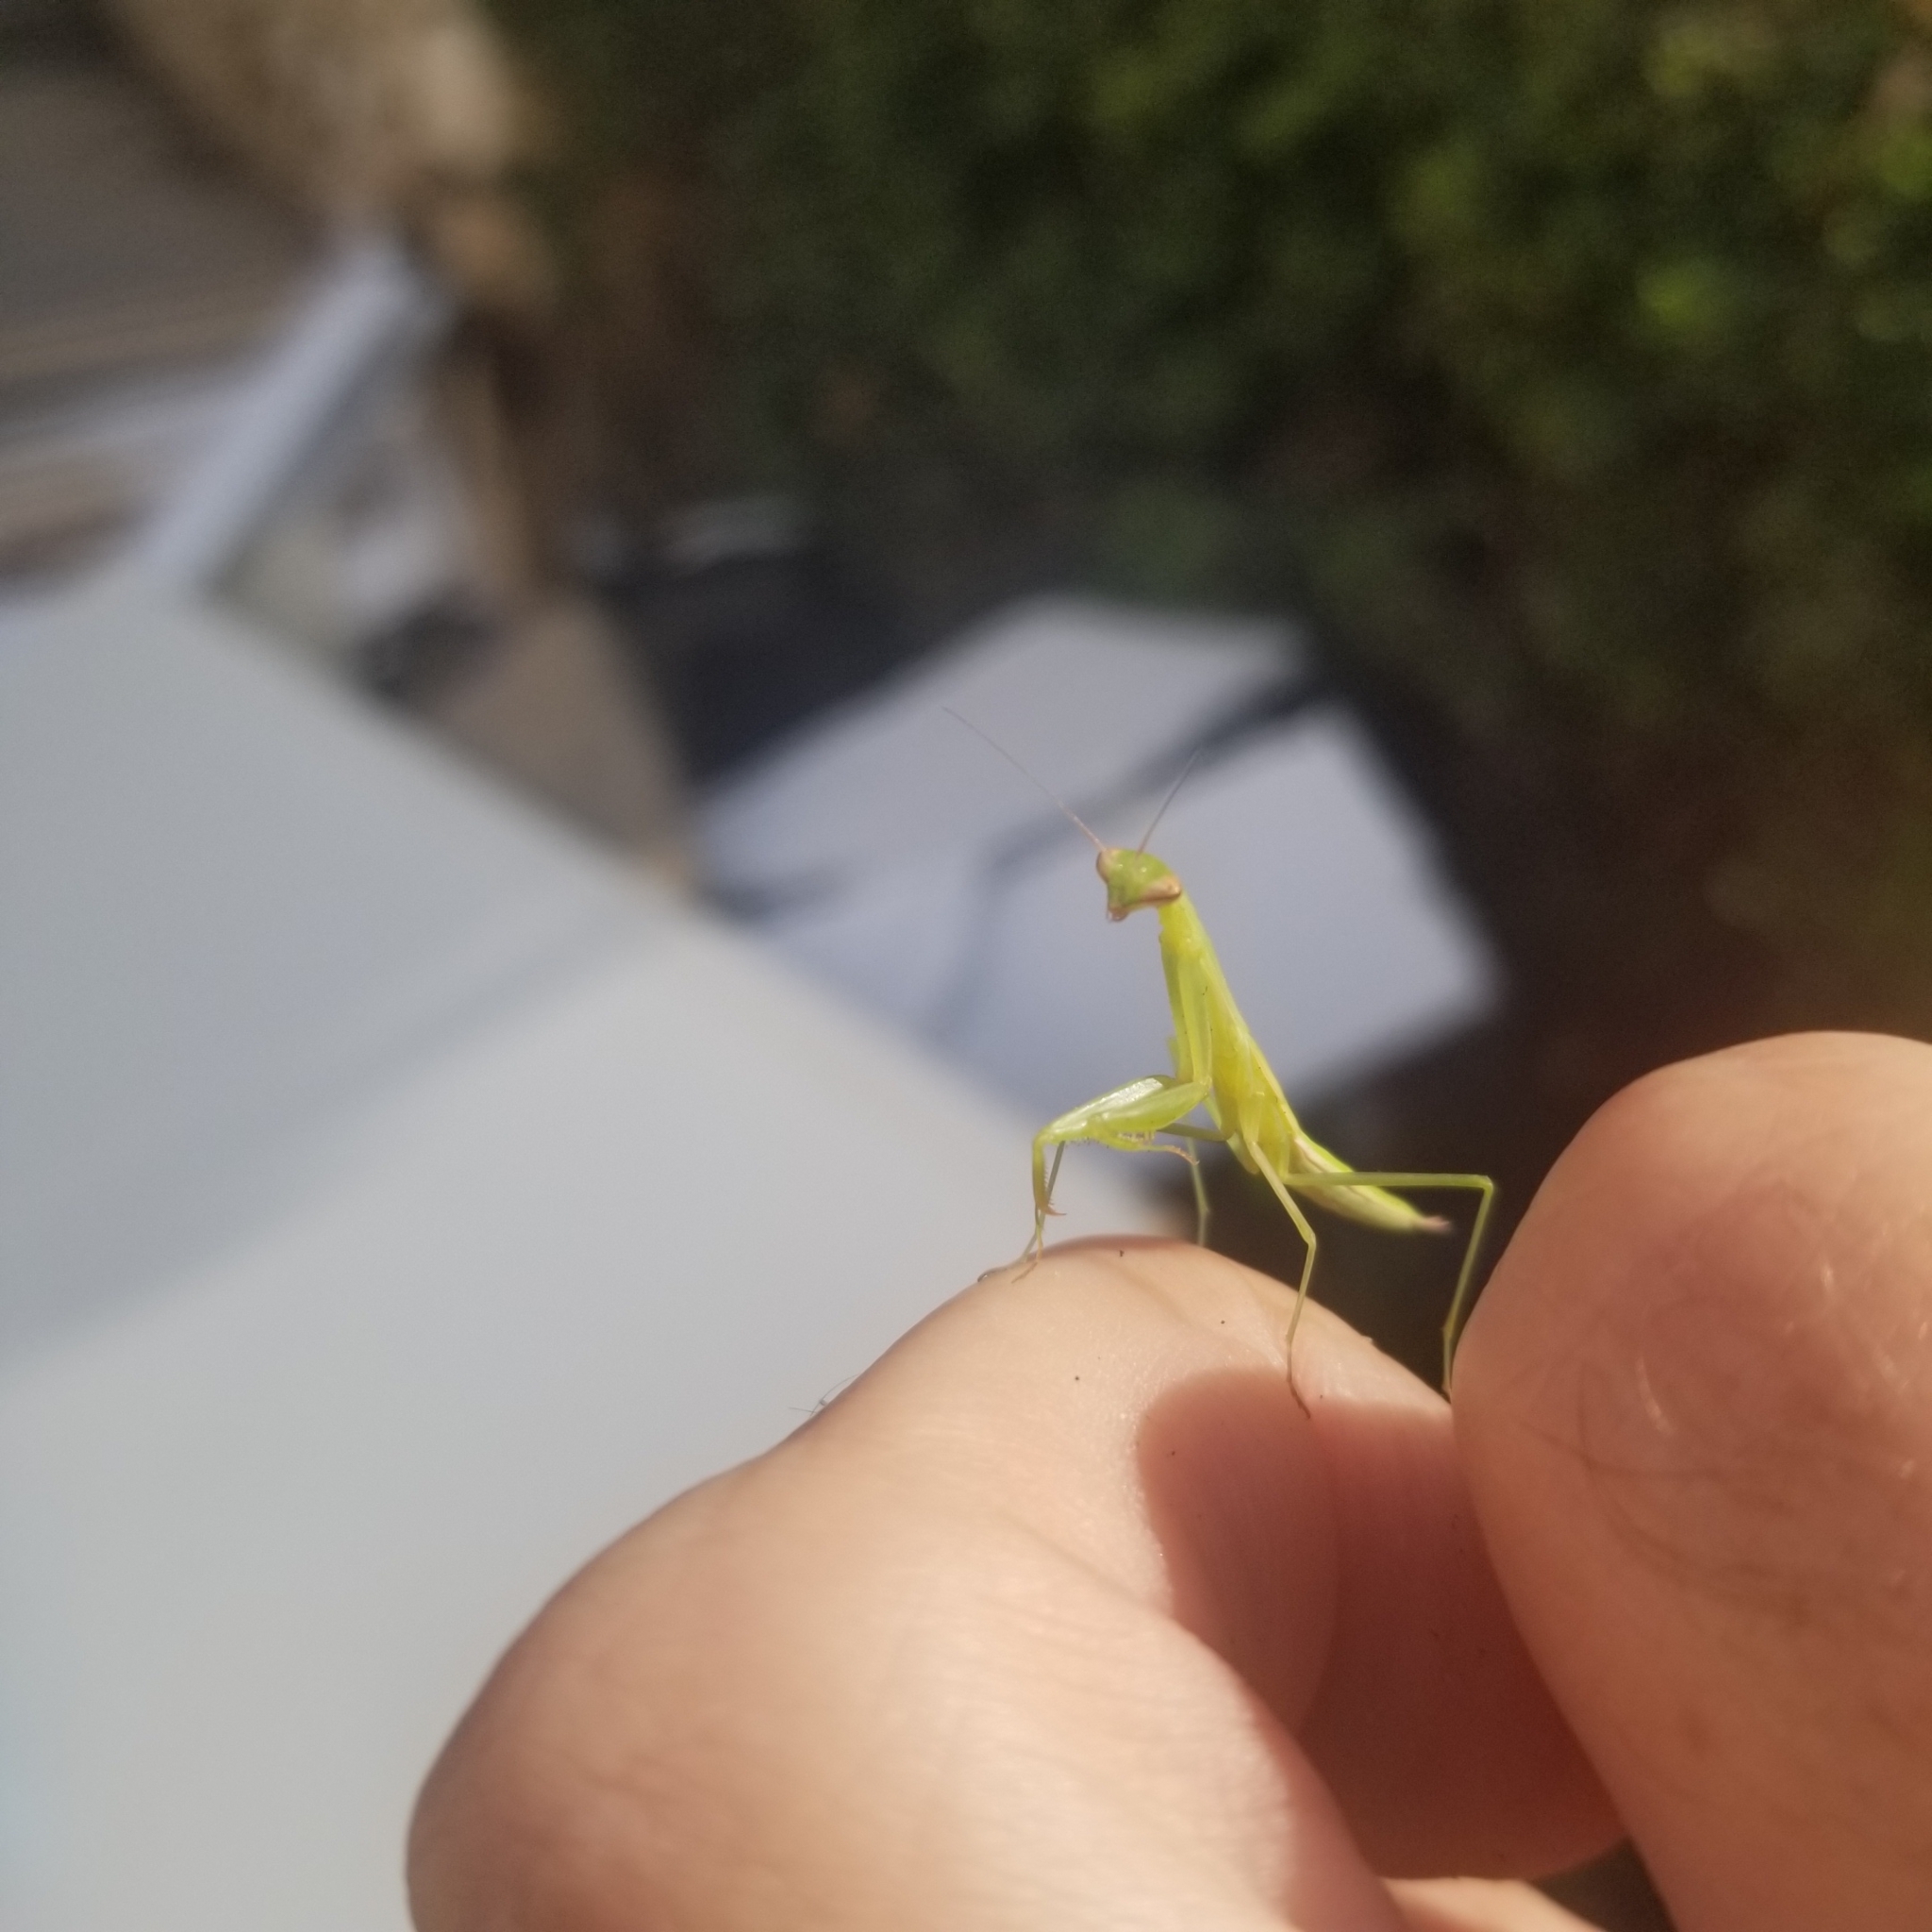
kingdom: Animalia
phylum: Arthropoda
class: Insecta
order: Mantodea
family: Miomantidae
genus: Miomantis
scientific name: Miomantis paykullii
